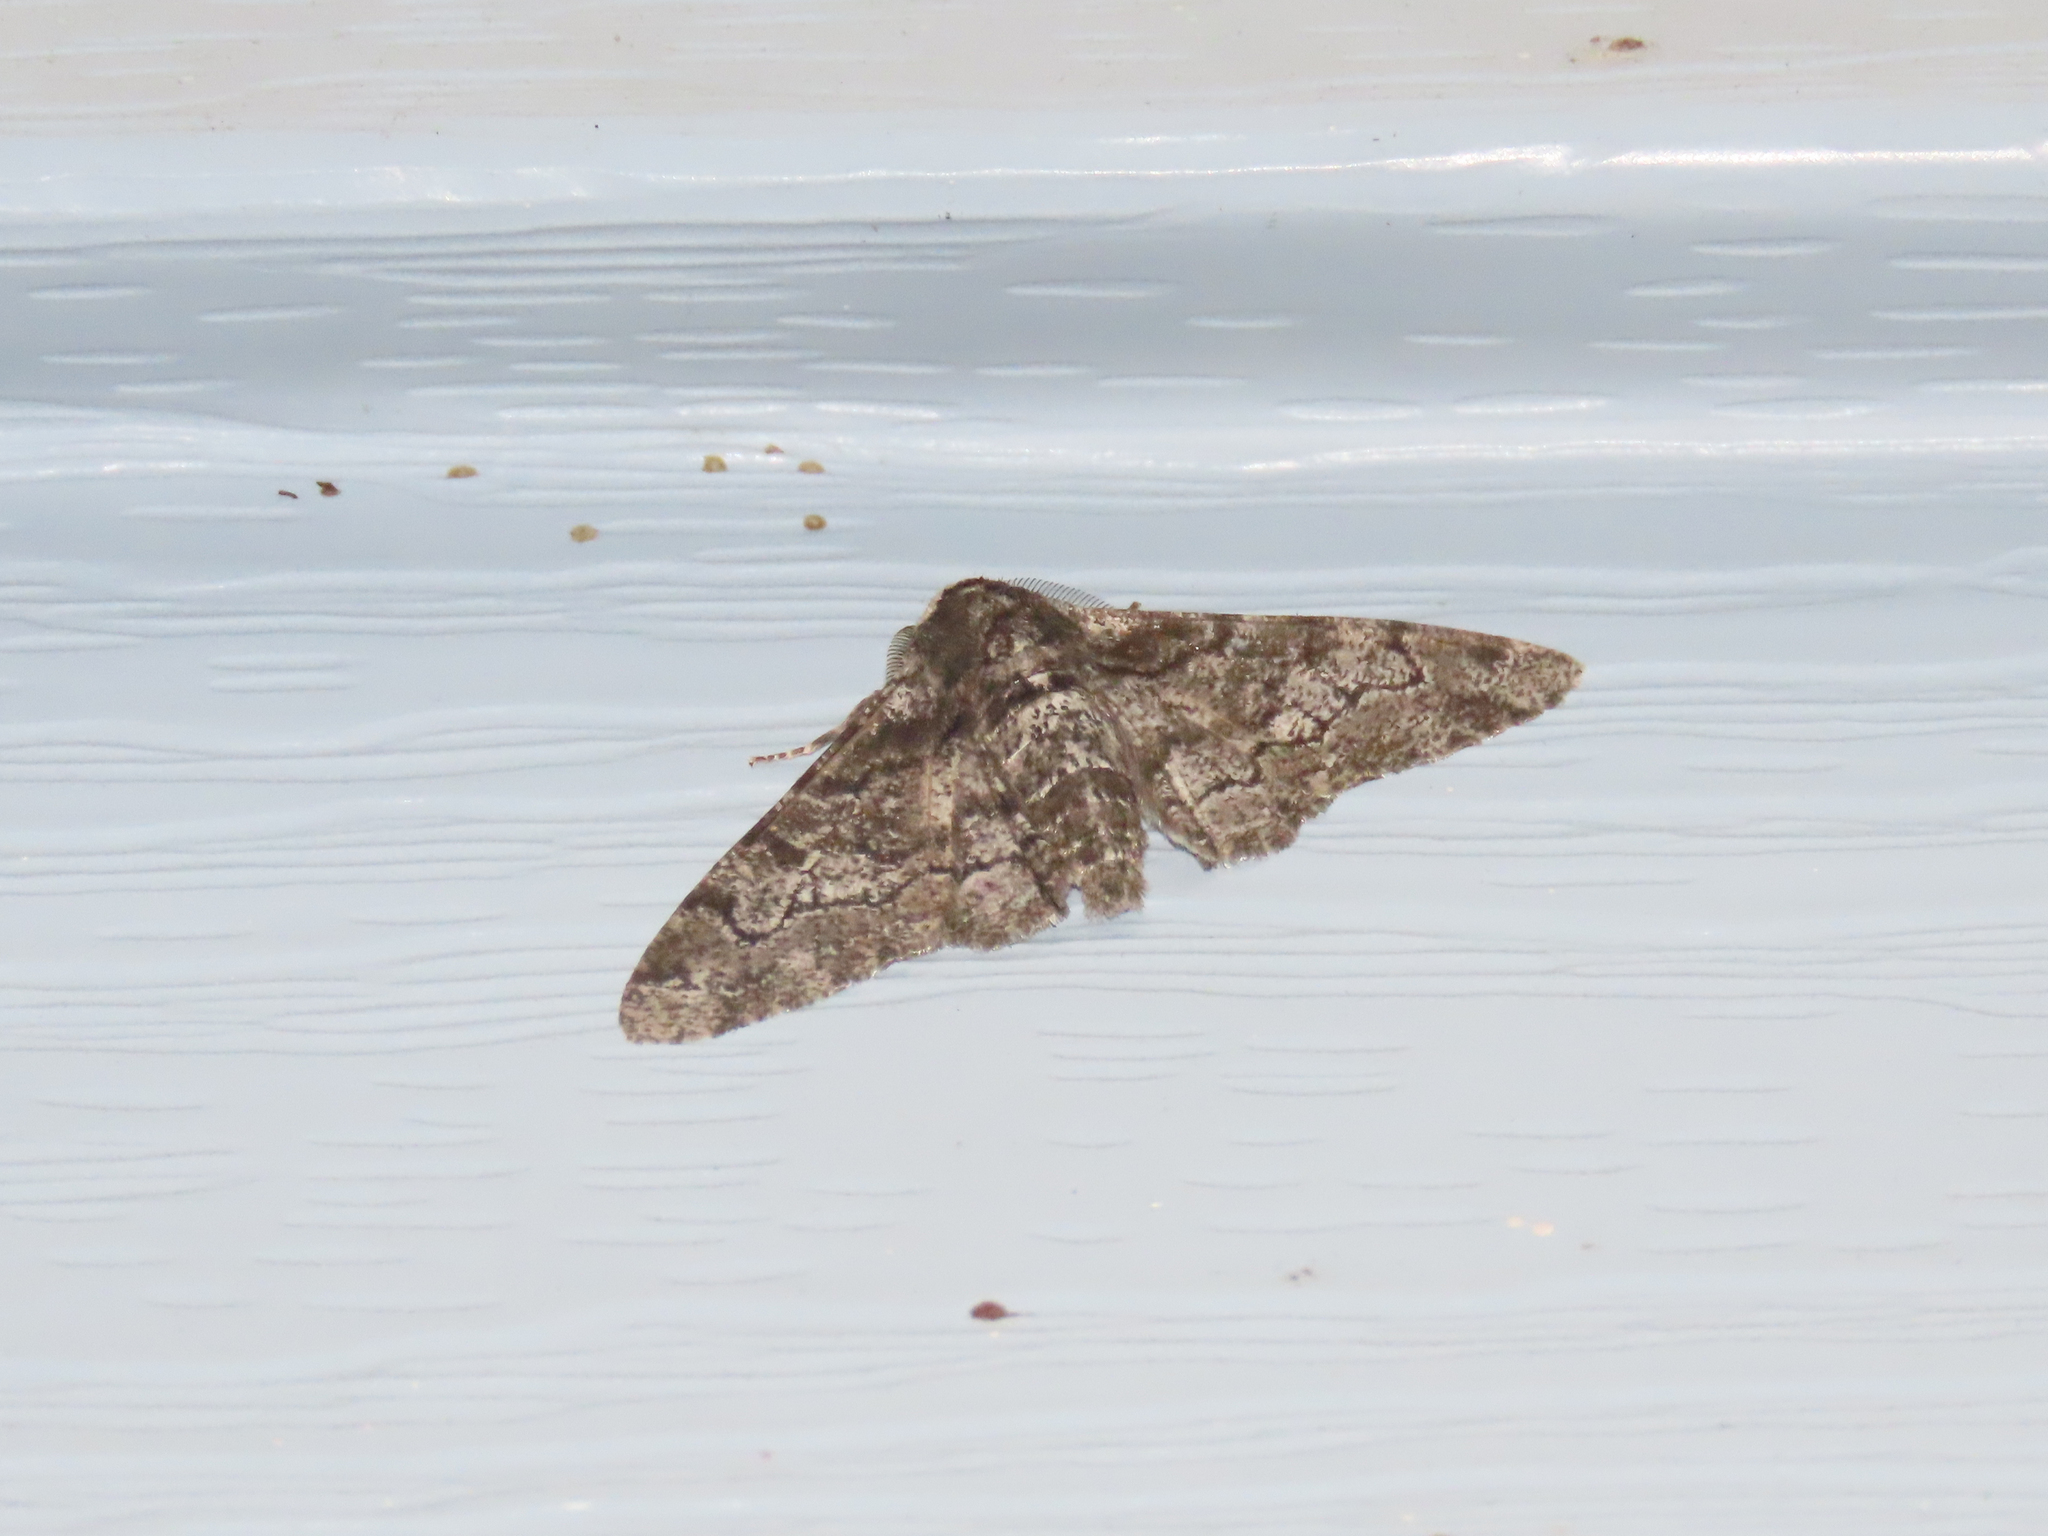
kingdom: Animalia
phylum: Arthropoda
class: Insecta
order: Lepidoptera
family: Geometridae
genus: Biston
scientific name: Biston betularia
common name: Peppered moth
